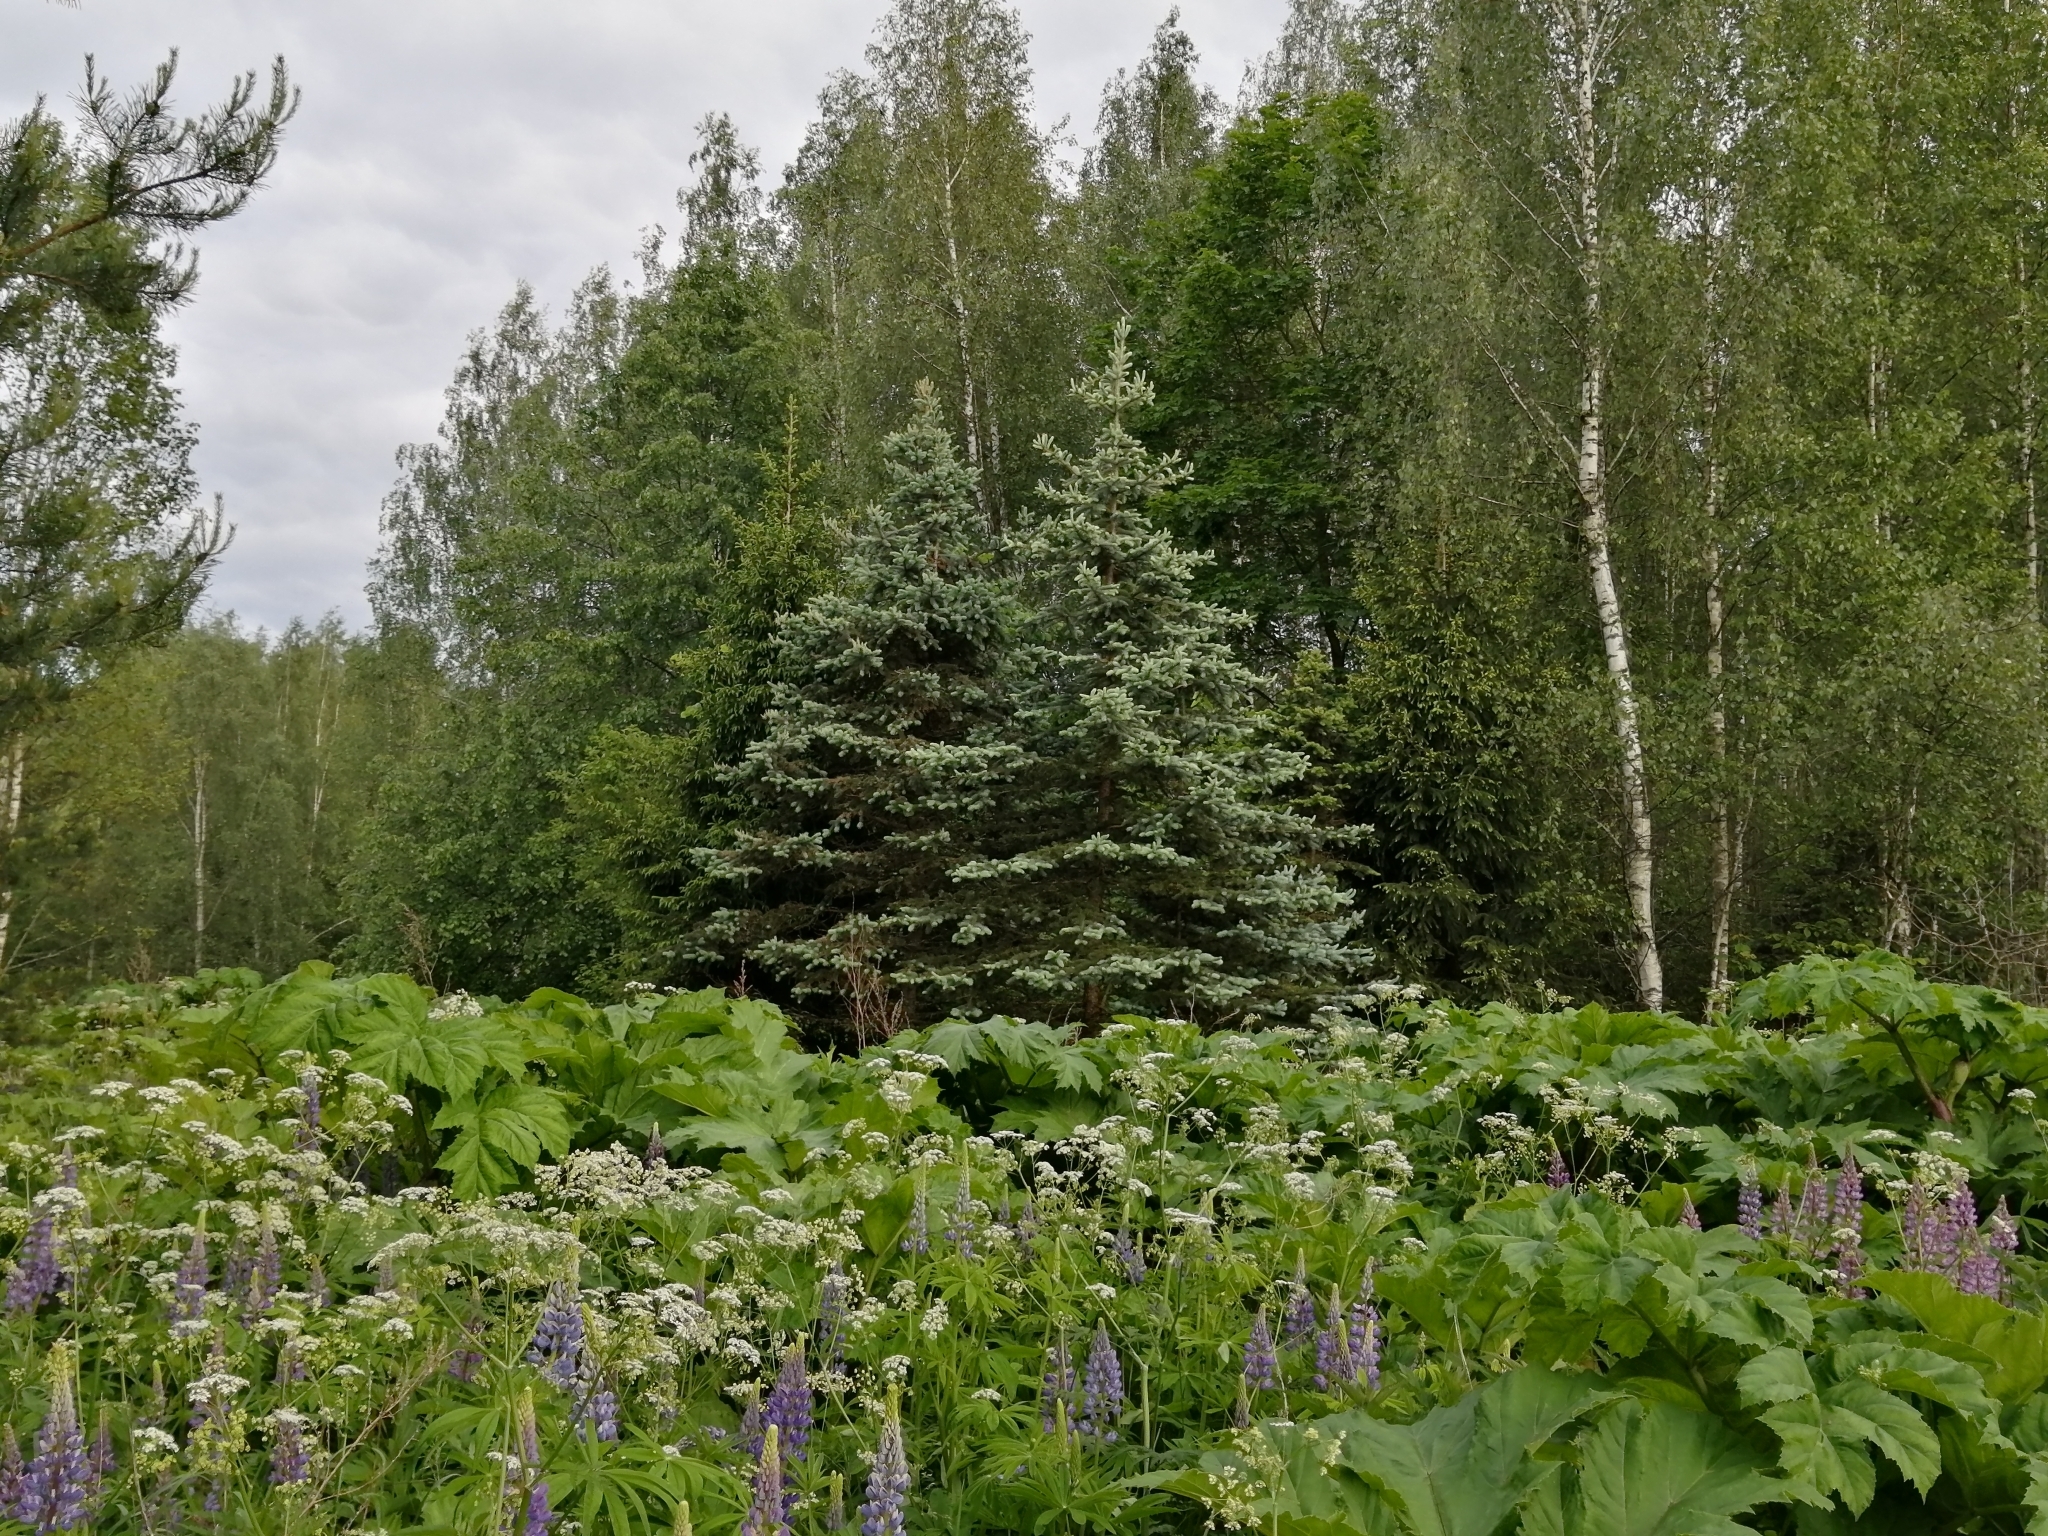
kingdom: Plantae
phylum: Tracheophyta
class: Magnoliopsida
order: Apiales
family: Apiaceae
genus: Heracleum
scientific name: Heracleum sosnowskyi
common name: Sosnowsky's hogweed
